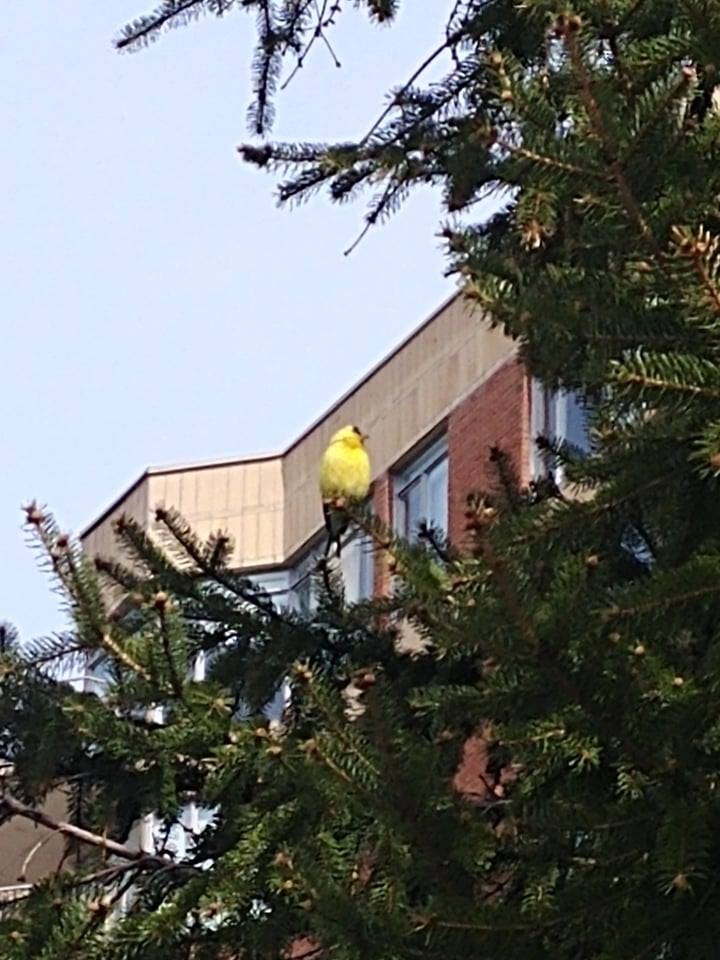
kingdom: Animalia
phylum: Chordata
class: Aves
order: Passeriformes
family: Fringillidae
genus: Spinus
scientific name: Spinus tristis
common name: American goldfinch
